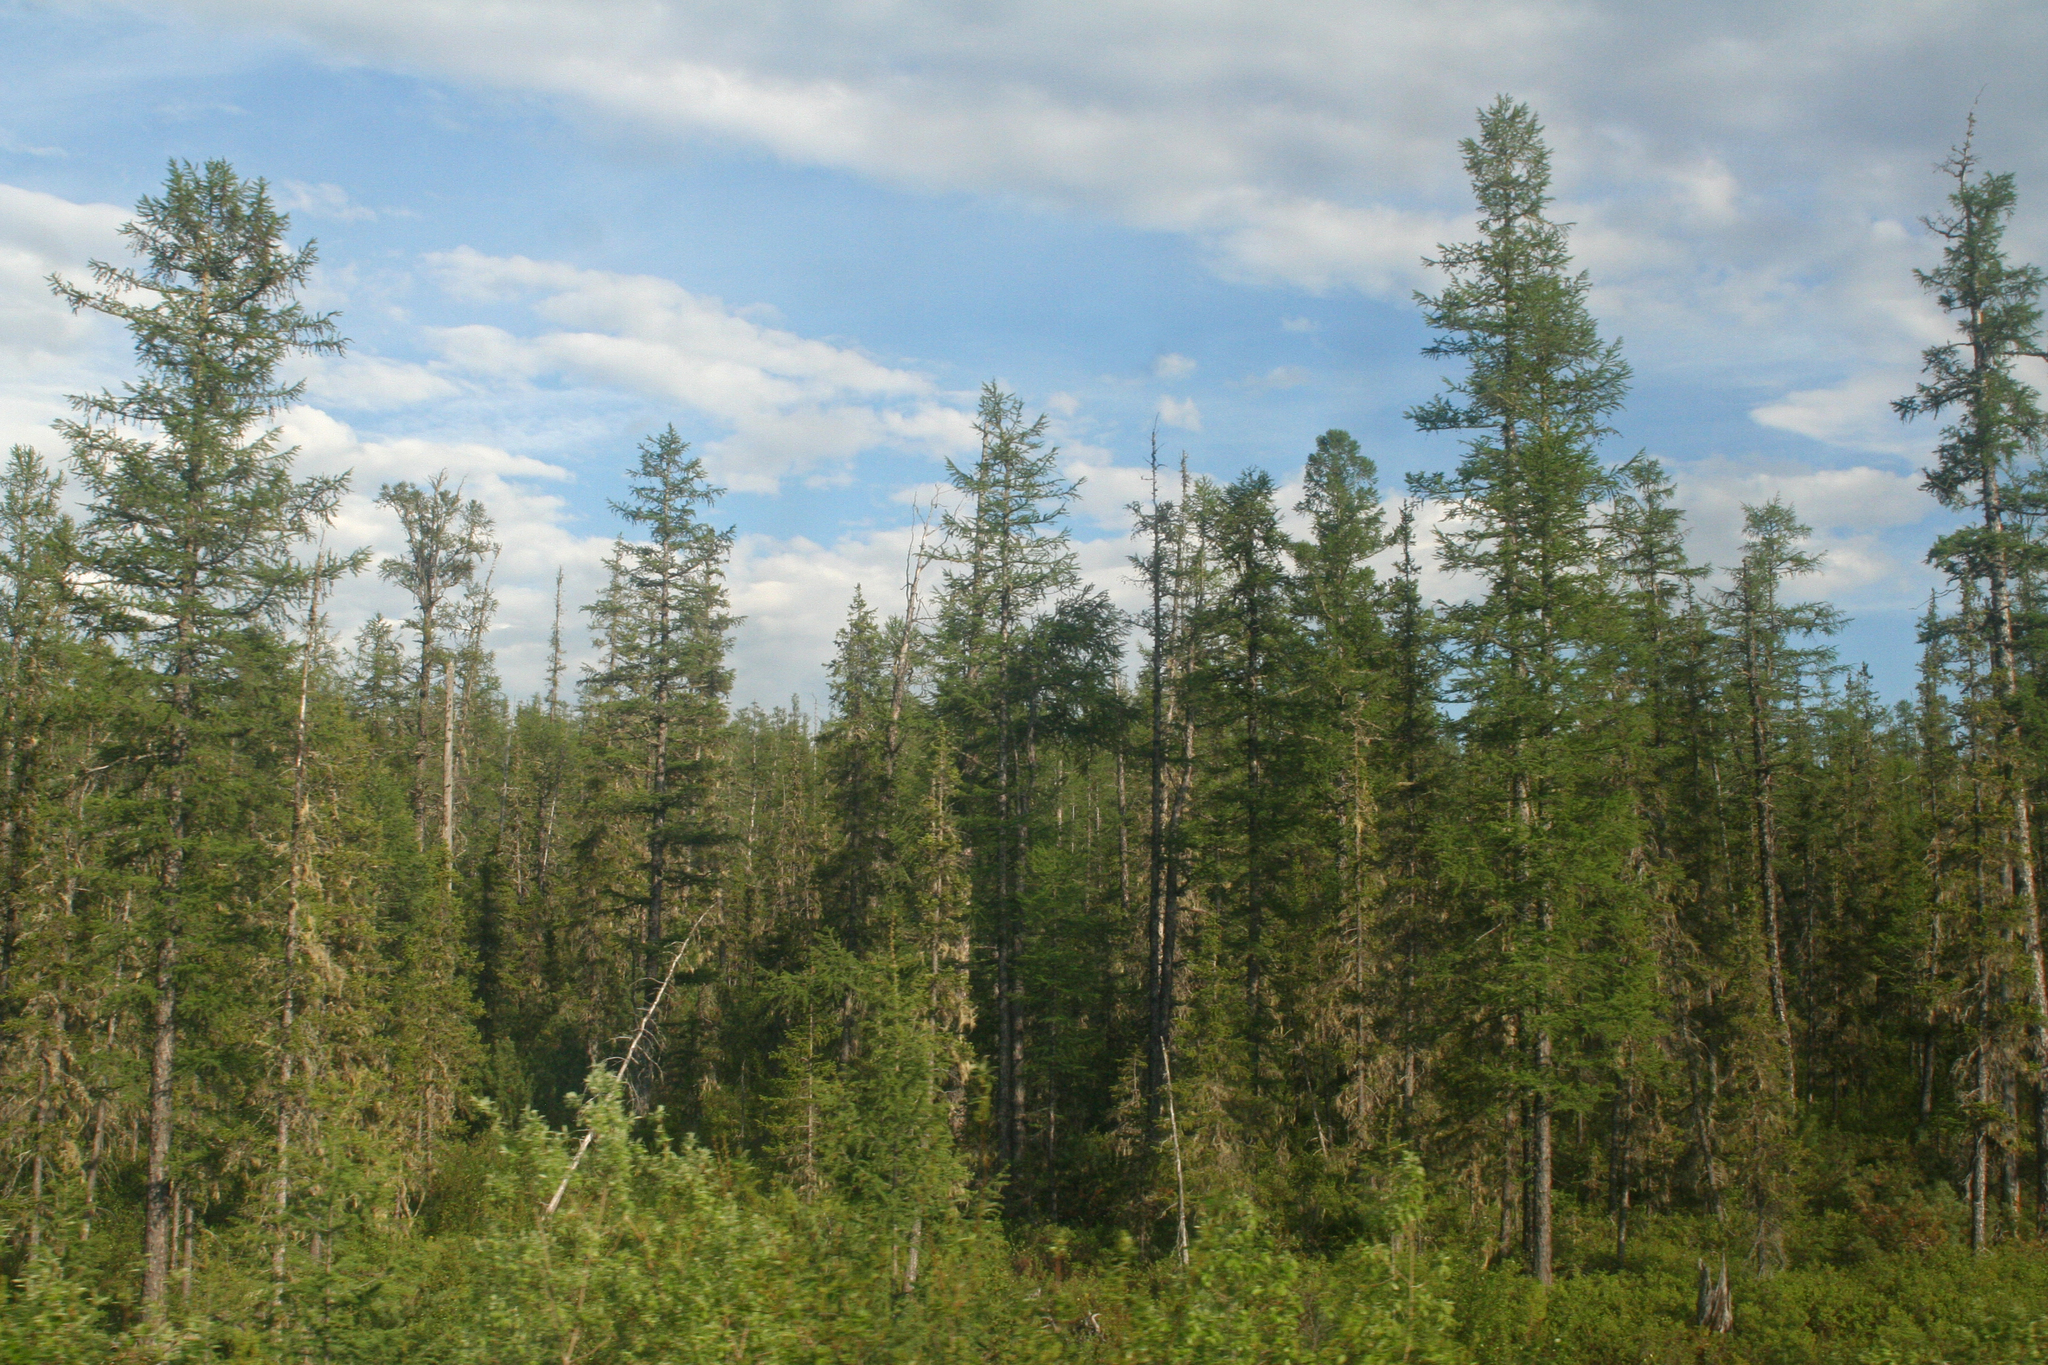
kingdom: Plantae
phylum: Tracheophyta
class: Pinopsida
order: Pinales
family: Pinaceae
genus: Larix
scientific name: Larix gmelinii
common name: Dahurian larch
